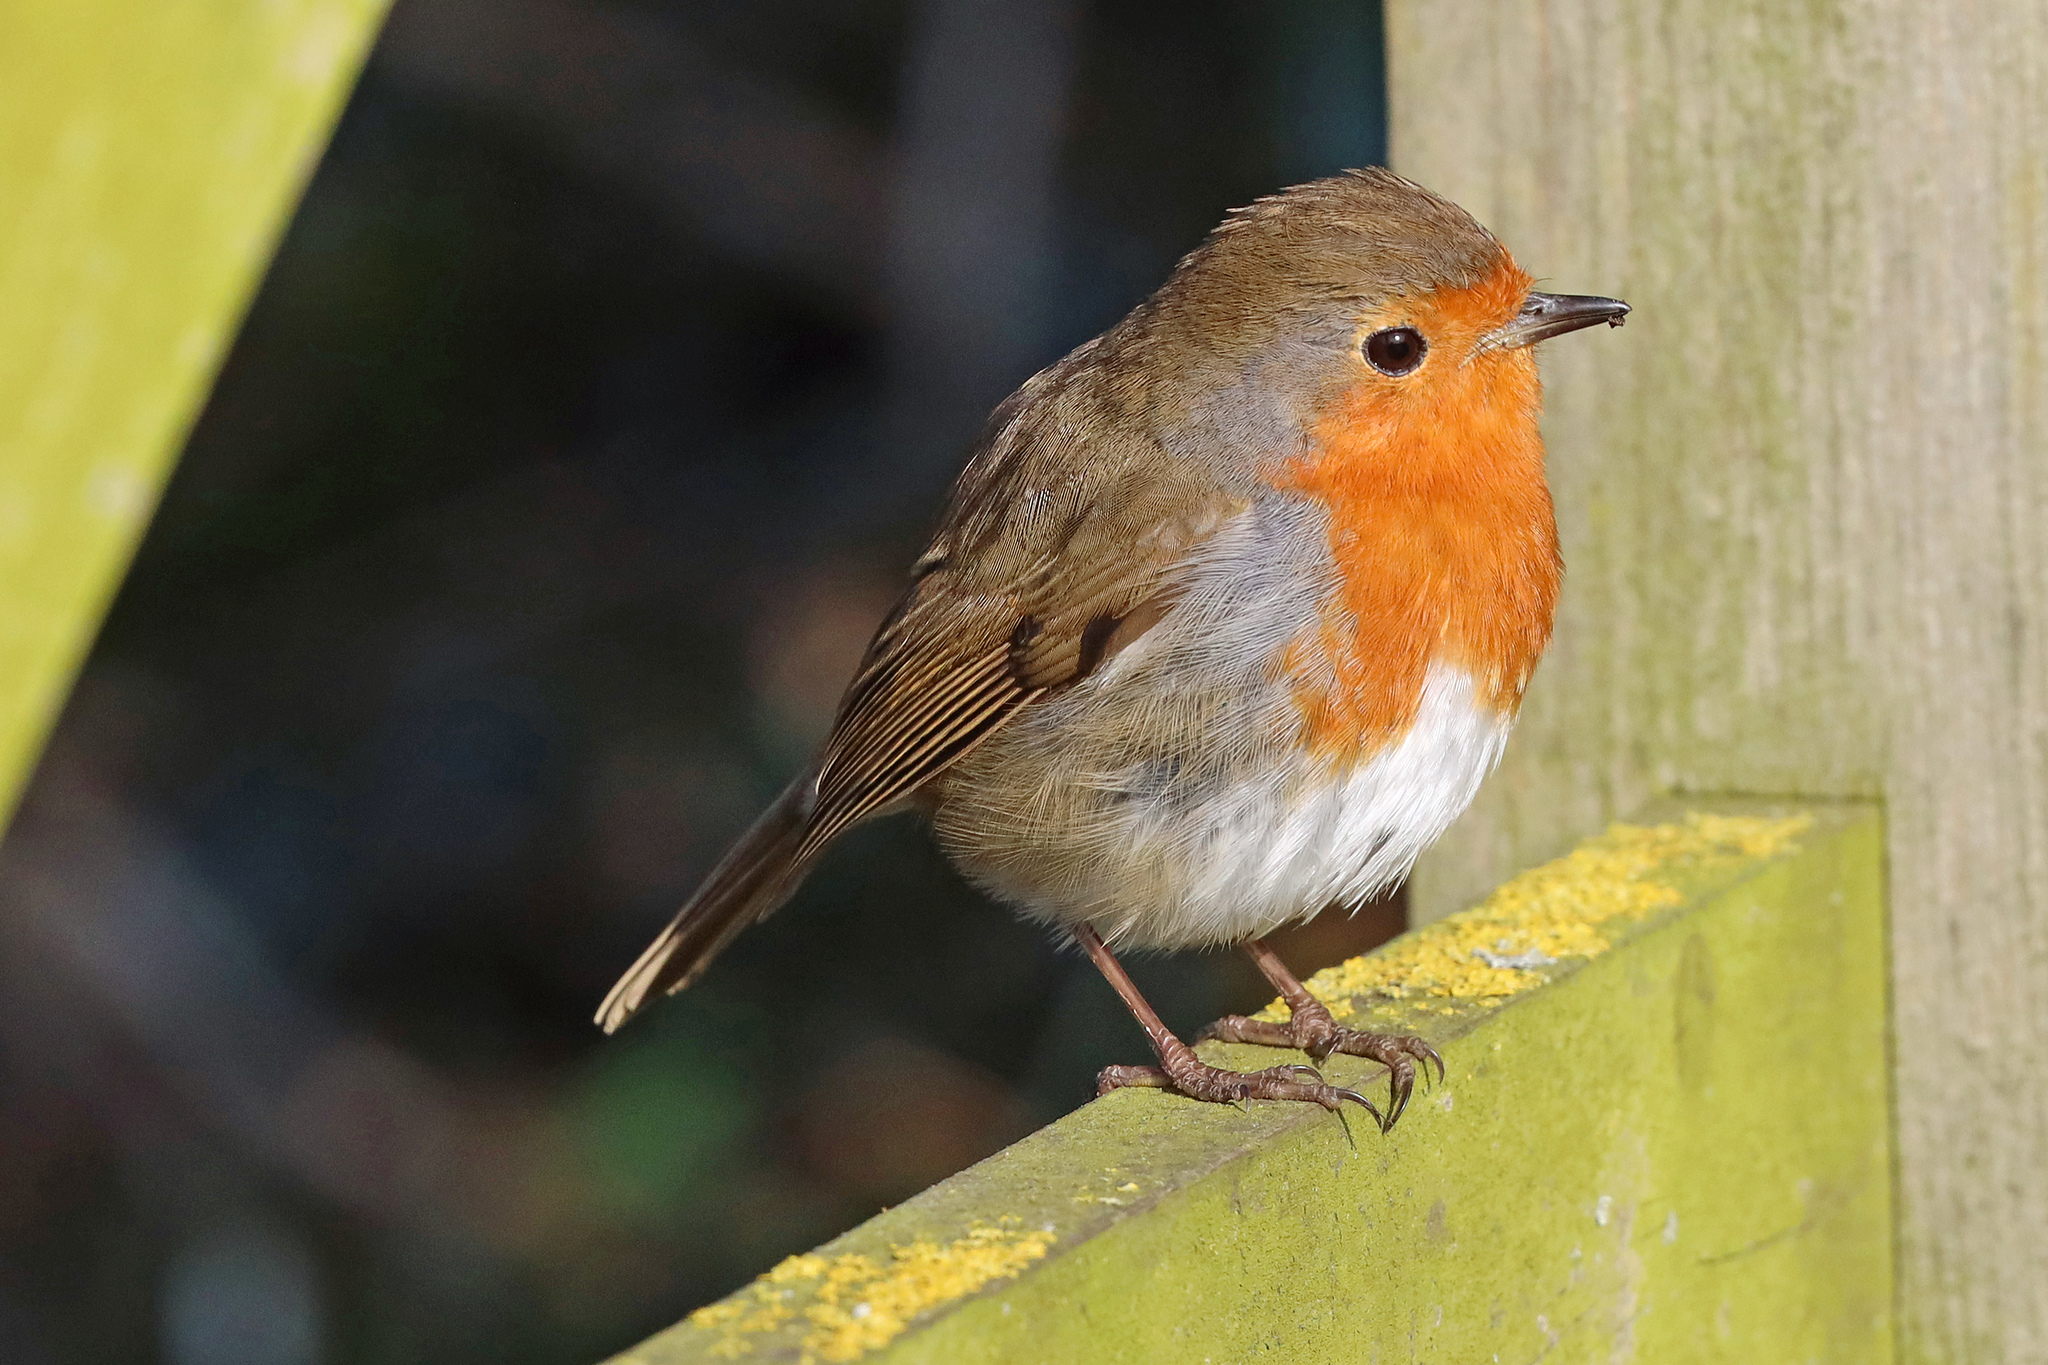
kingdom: Animalia
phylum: Chordata
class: Aves
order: Passeriformes
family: Muscicapidae
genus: Erithacus
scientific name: Erithacus rubecula
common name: European robin
